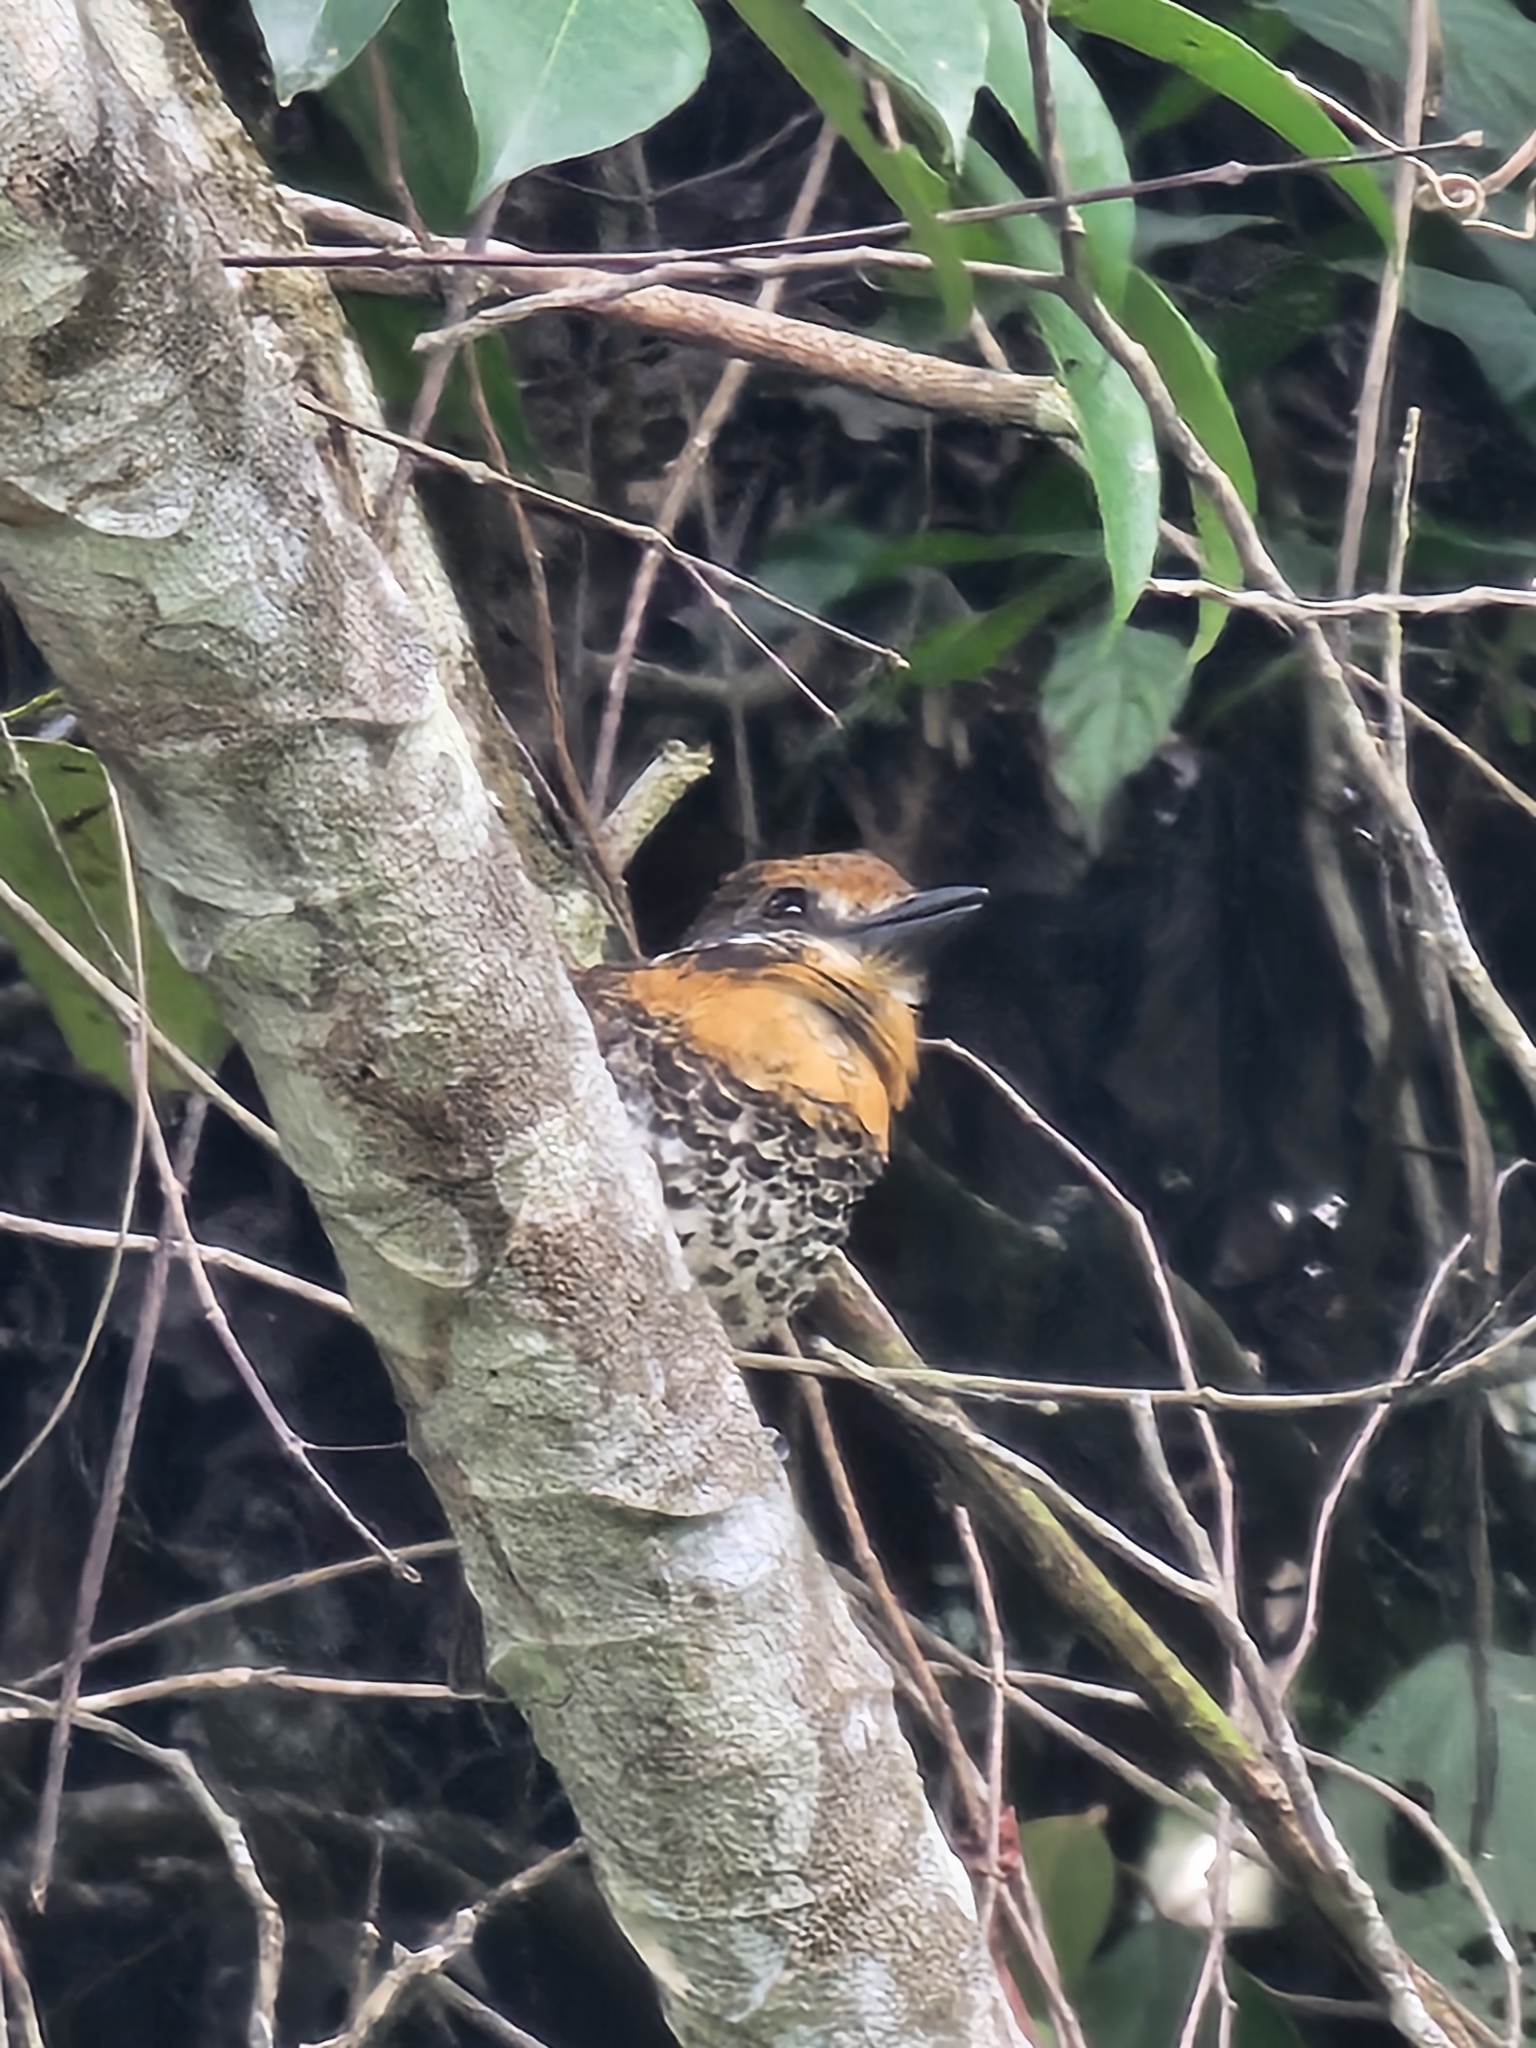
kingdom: Animalia
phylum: Chordata
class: Aves
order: Piciformes
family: Bucconidae
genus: Bucco
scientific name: Bucco tamatia
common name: Spotted puffbird
